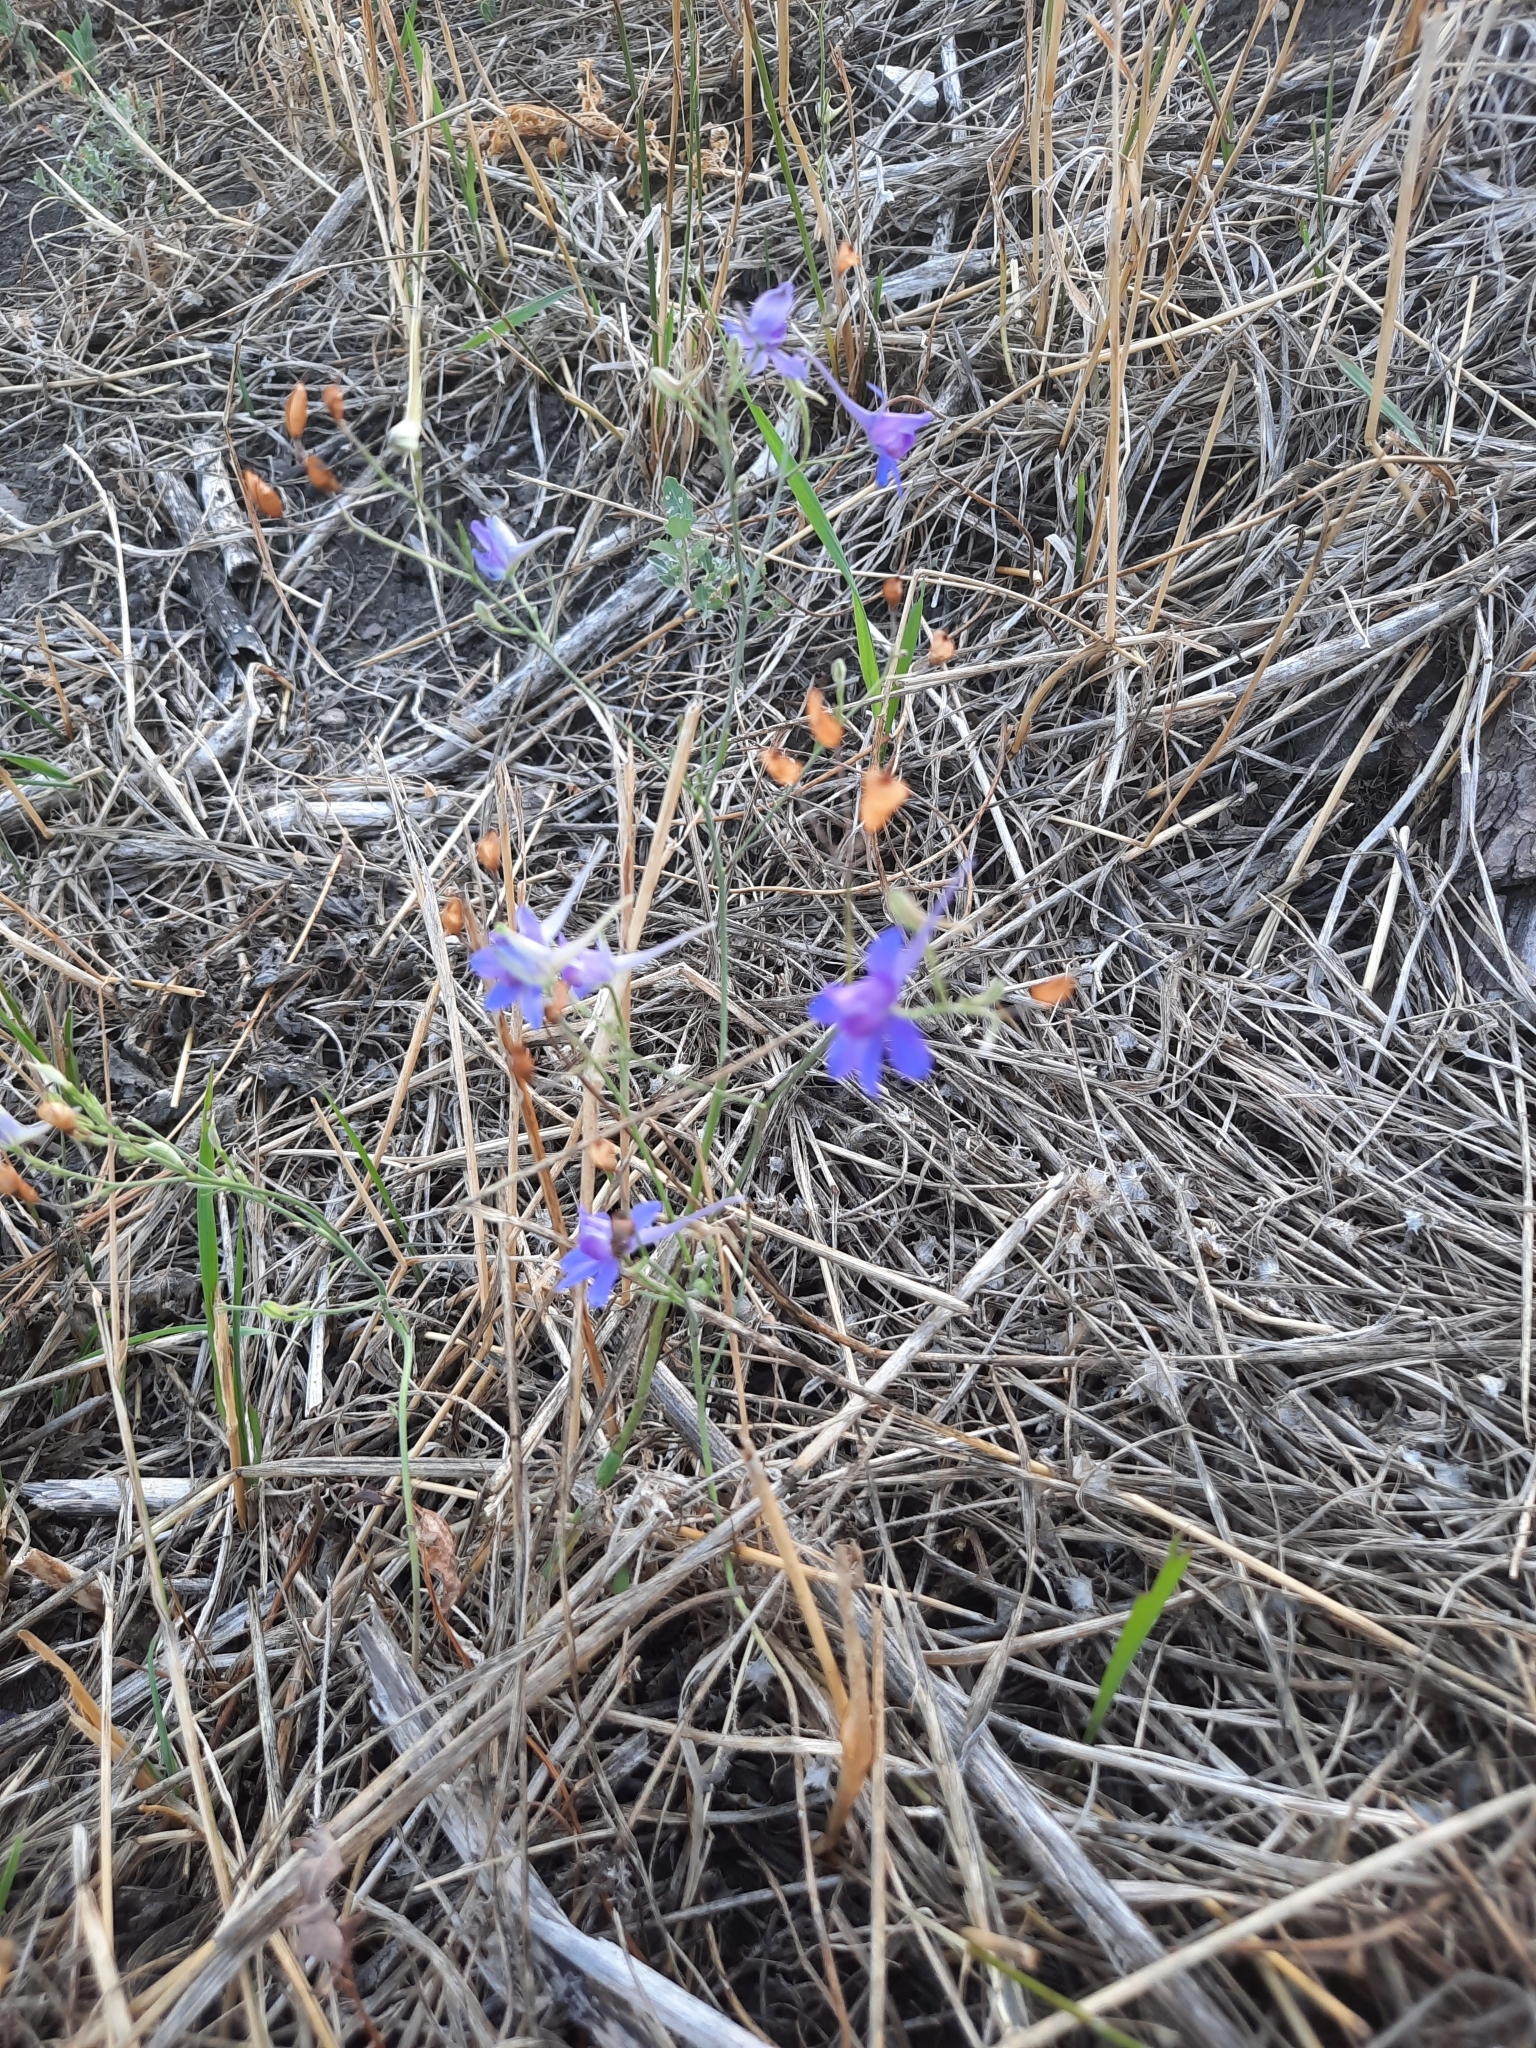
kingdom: Plantae
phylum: Tracheophyta
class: Magnoliopsida
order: Ranunculales
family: Ranunculaceae
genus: Delphinium
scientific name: Delphinium consolida
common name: Branching larkspur
